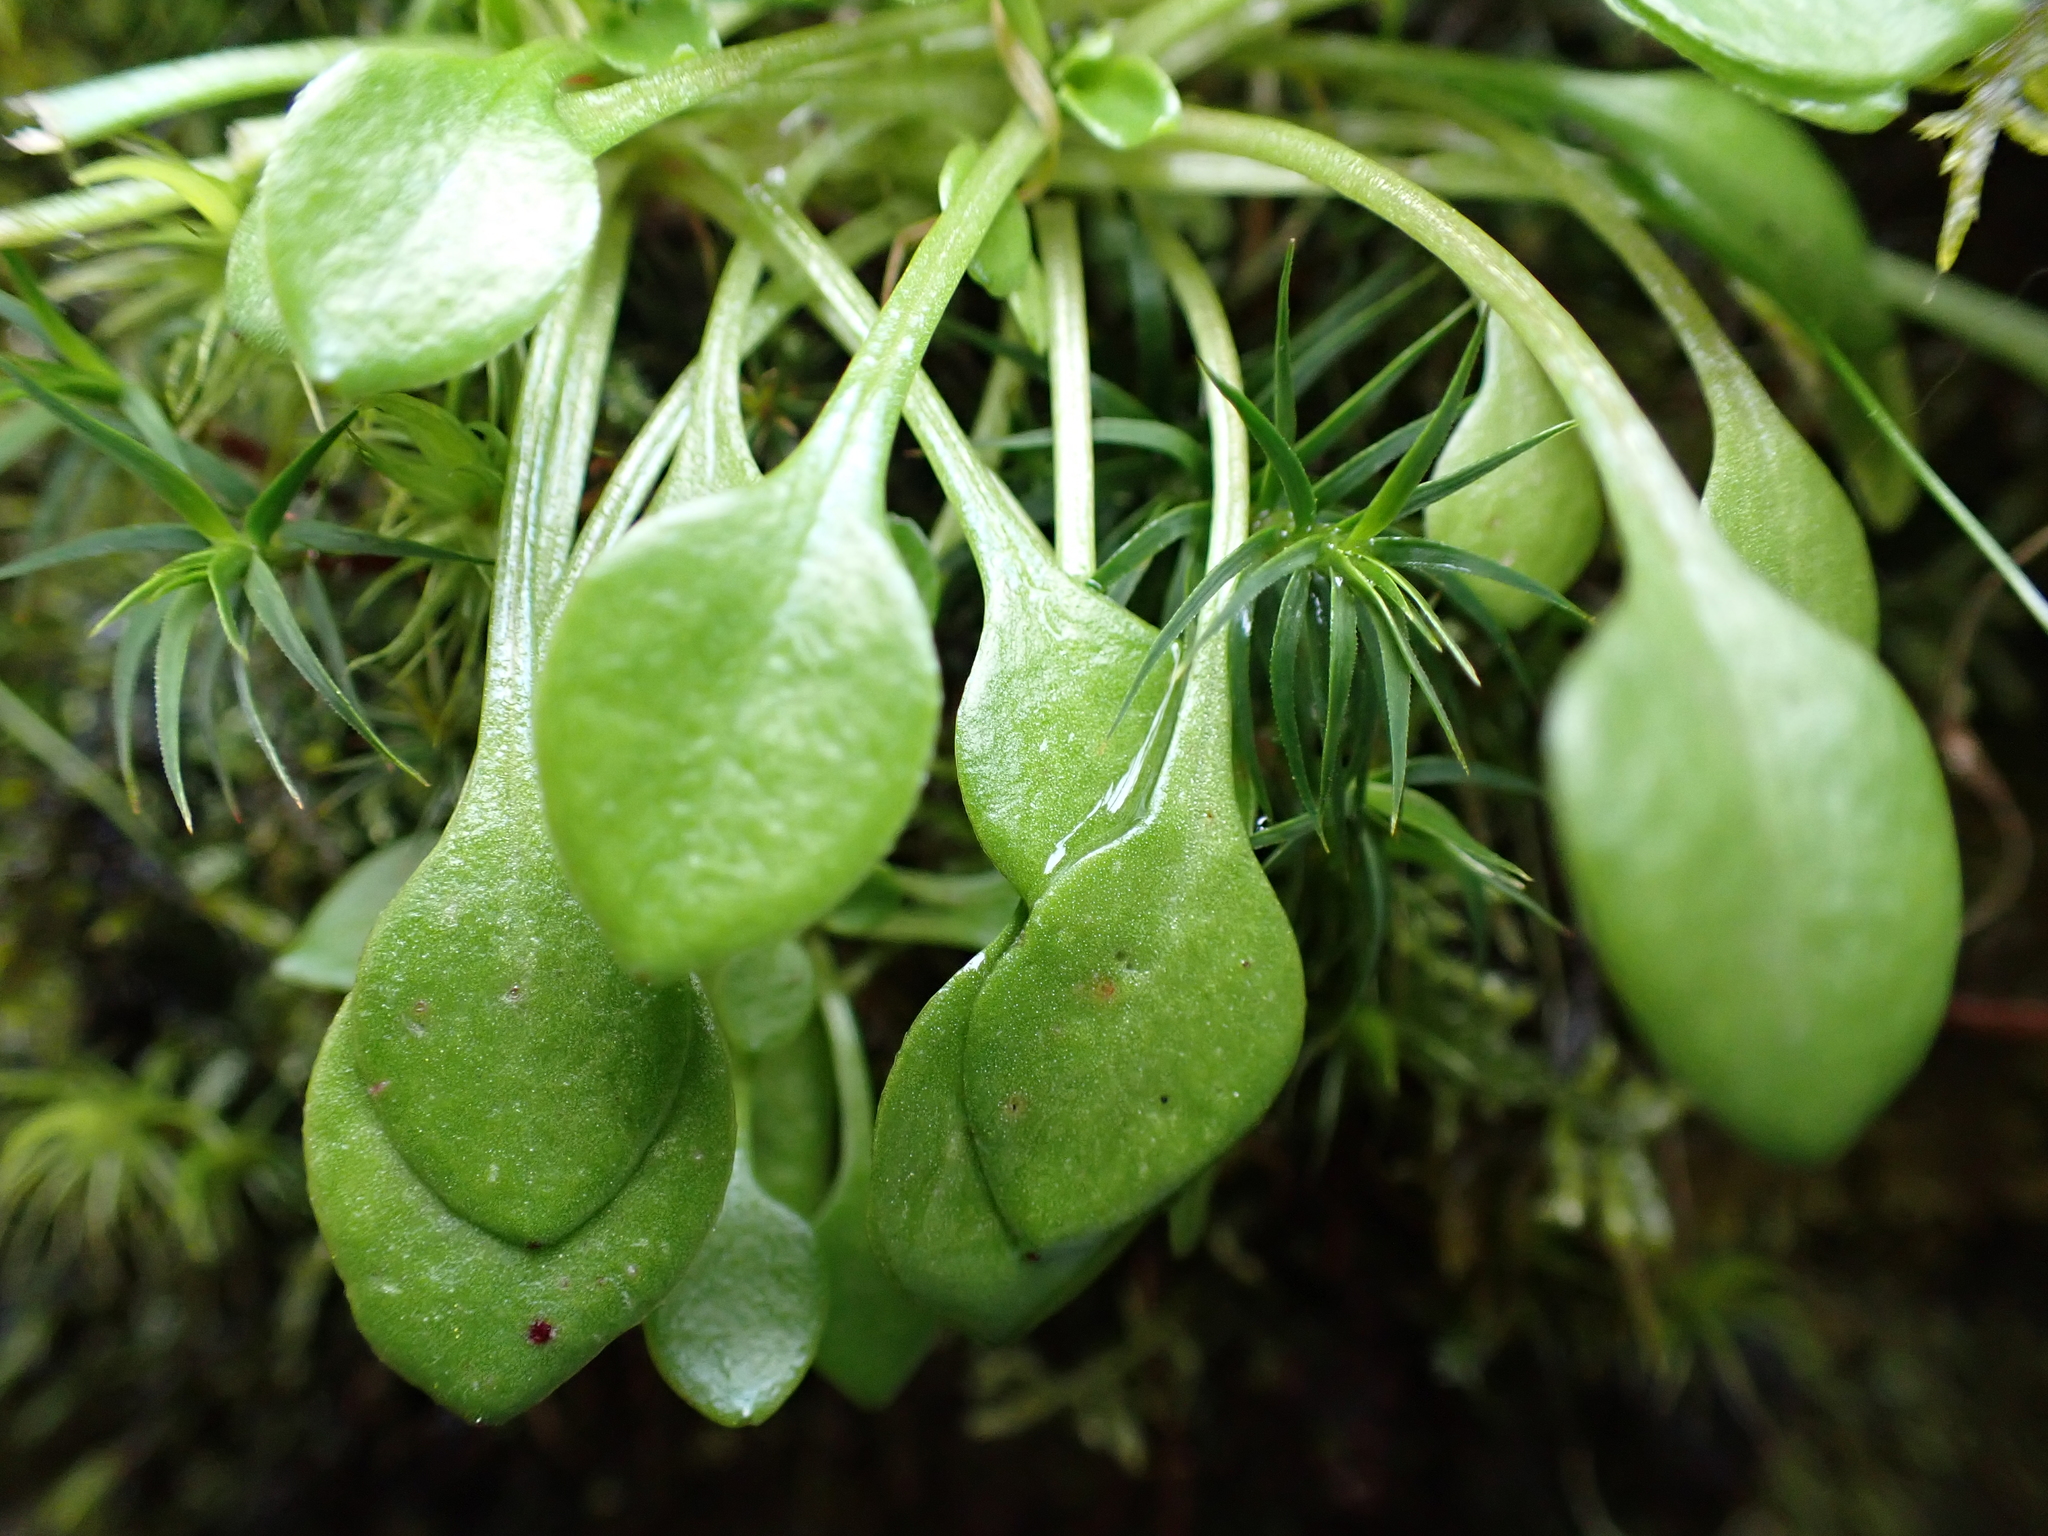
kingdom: Plantae
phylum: Tracheophyta
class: Magnoliopsida
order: Caryophyllales
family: Montiaceae
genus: Montia
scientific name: Montia parvifolia
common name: Small-leaved blinks
